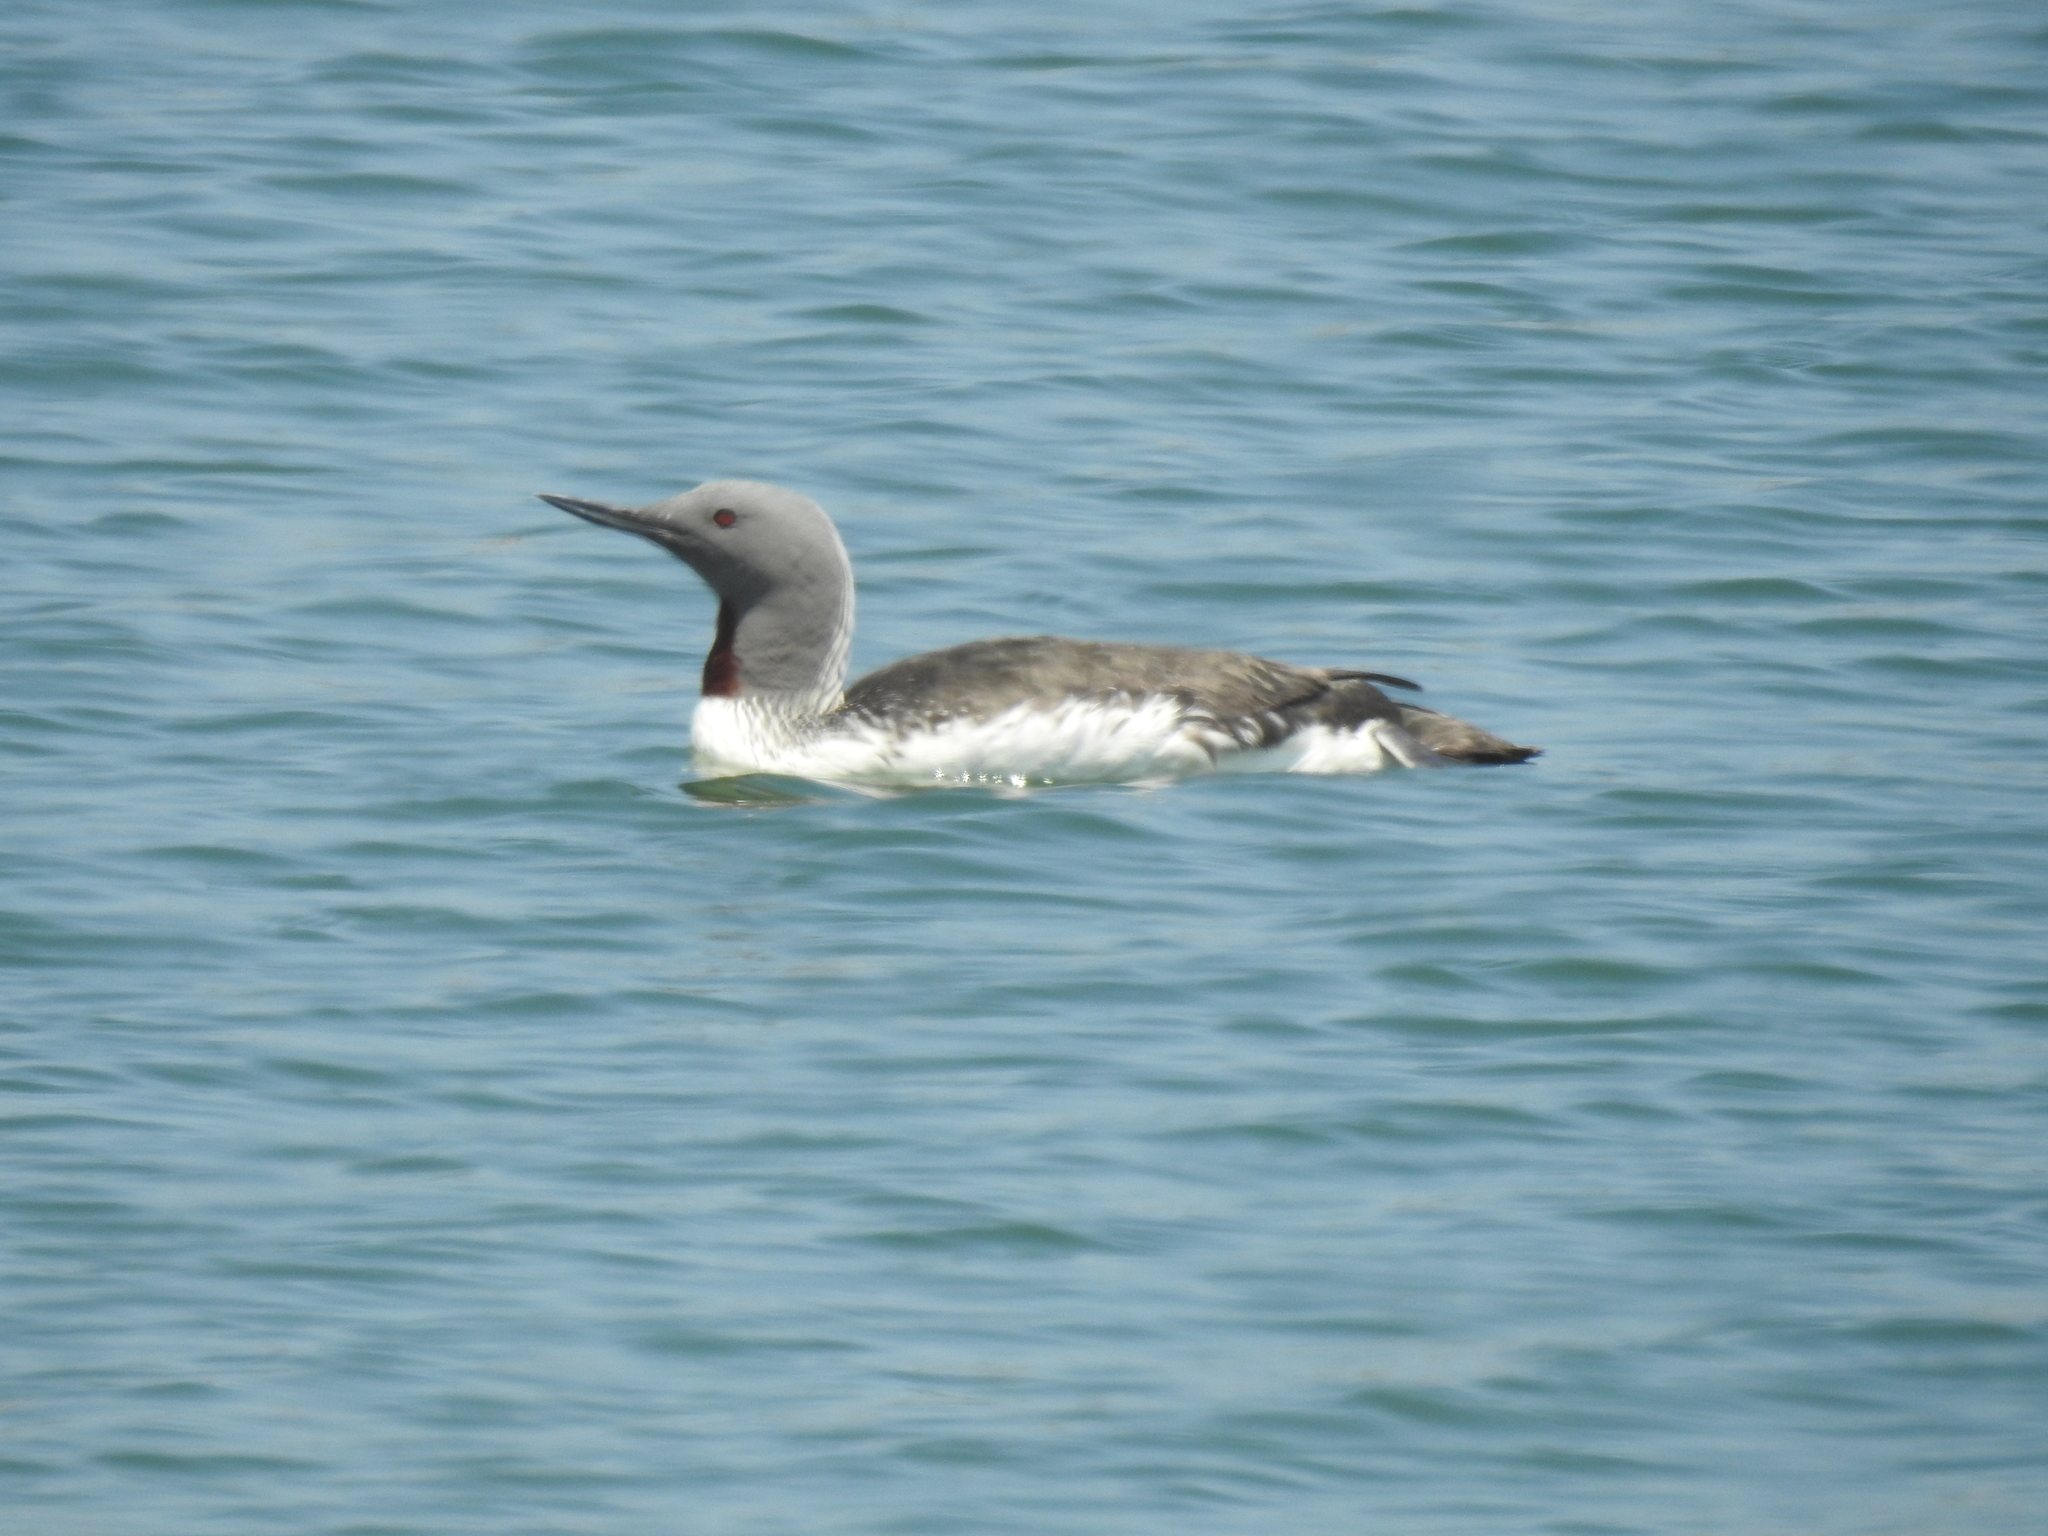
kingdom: Animalia
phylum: Chordata
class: Aves
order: Gaviiformes
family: Gaviidae
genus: Gavia
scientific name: Gavia stellata
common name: Red-throated loon
